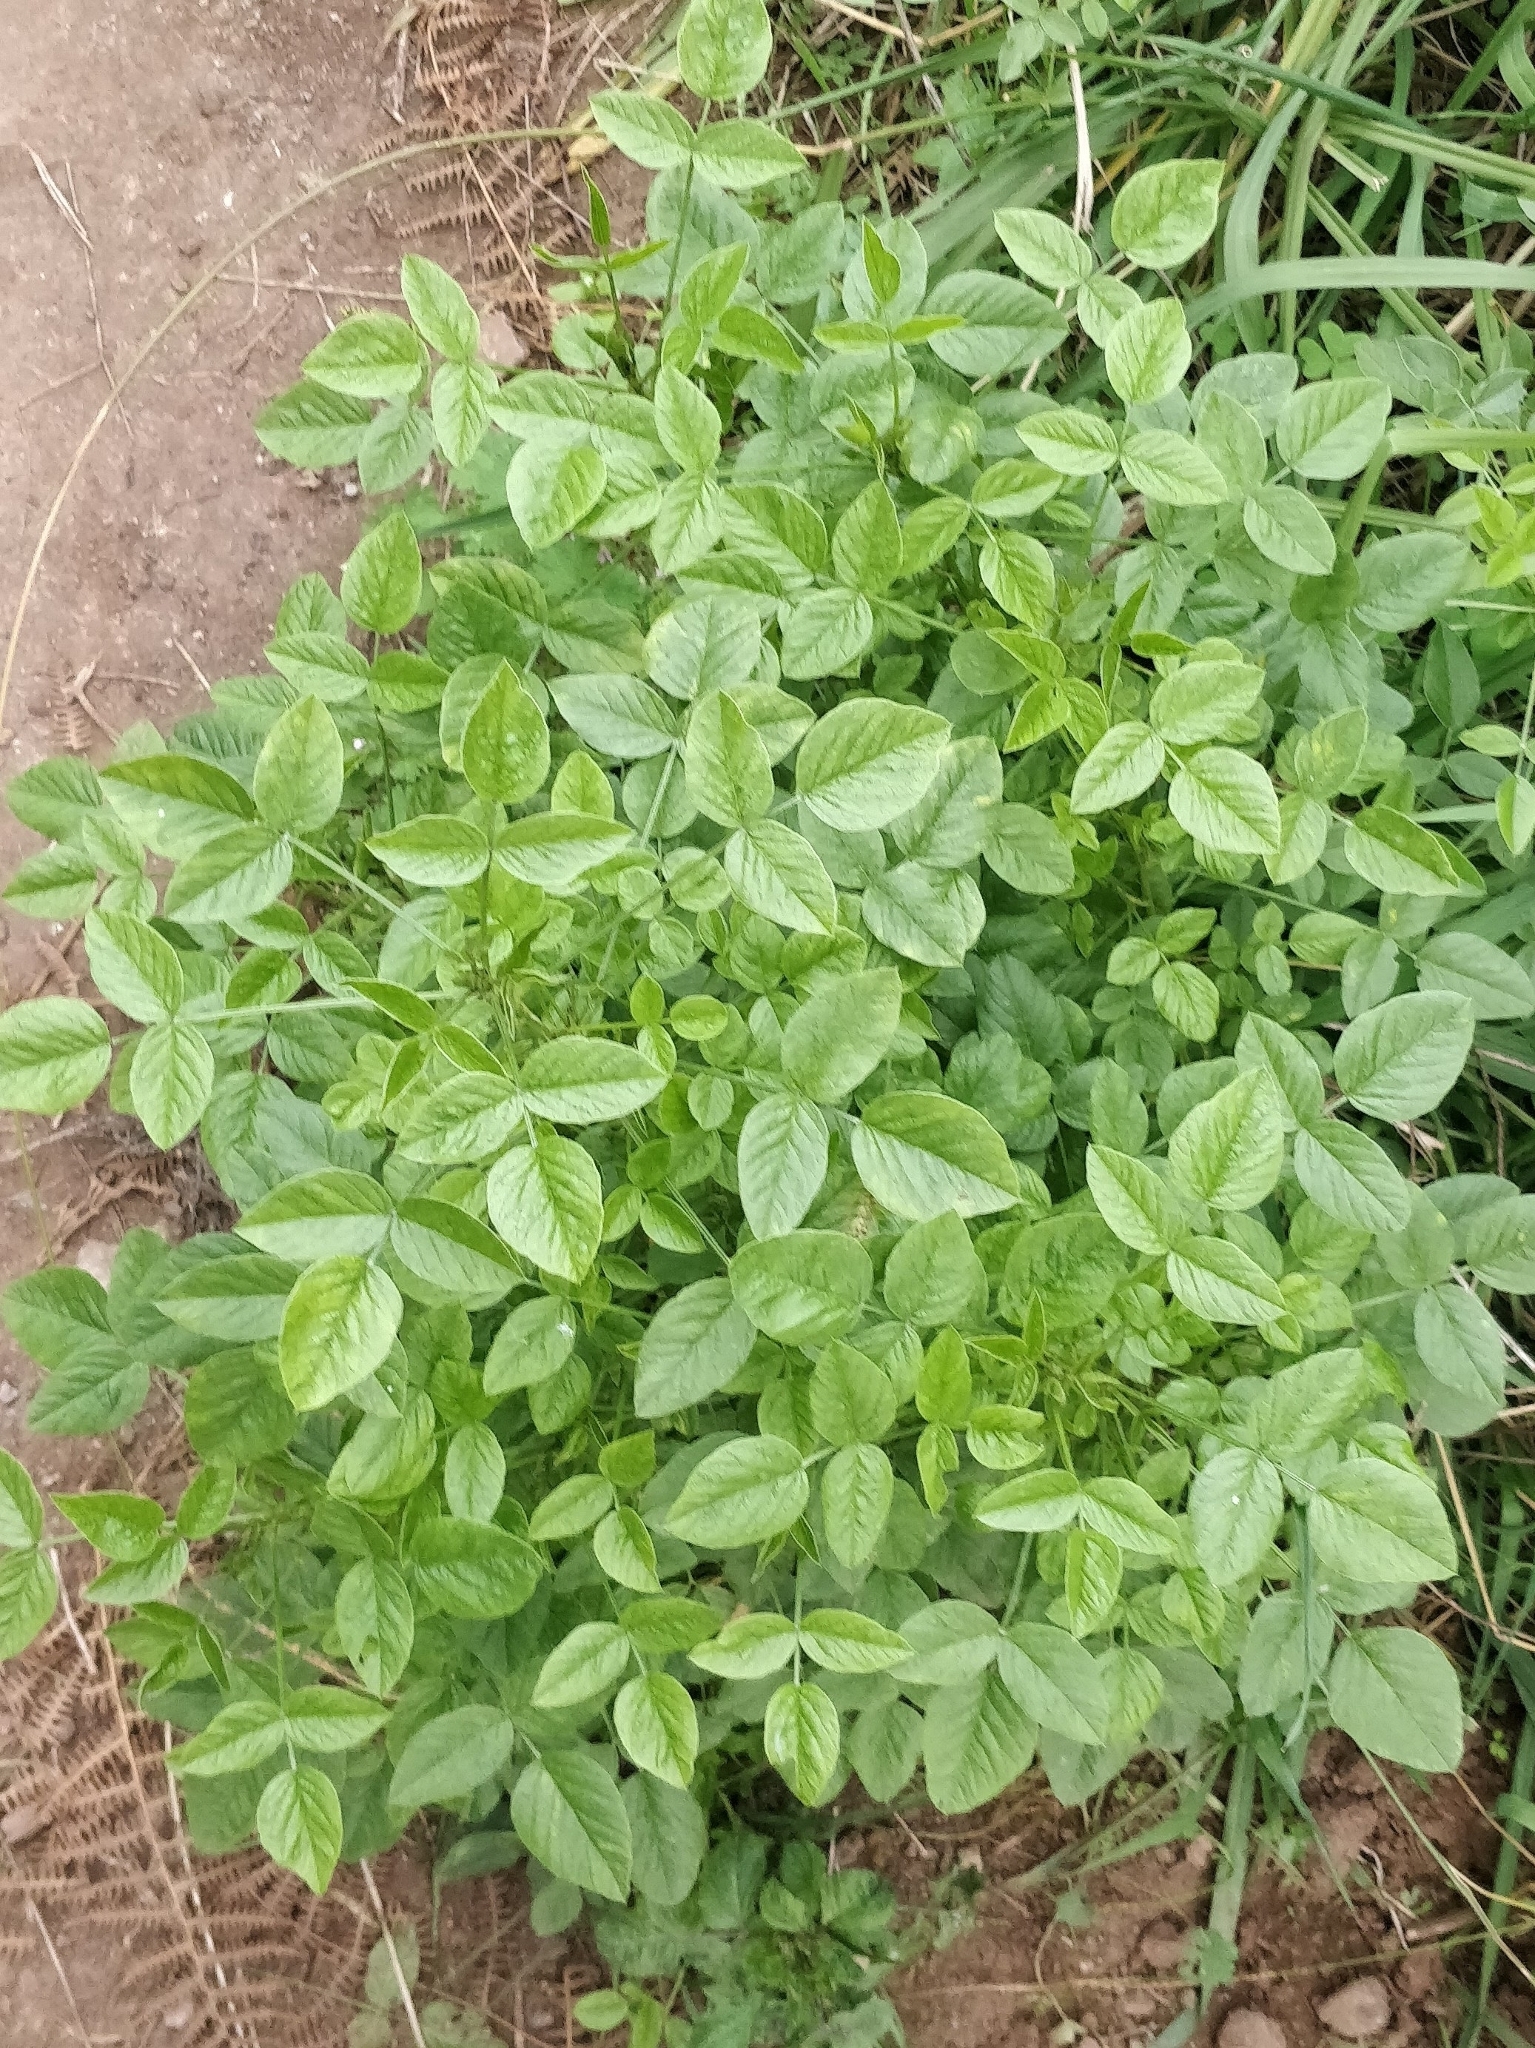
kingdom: Plantae
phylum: Tracheophyta
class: Magnoliopsida
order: Fabales
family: Fabaceae
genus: Bituminaria
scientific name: Bituminaria bituminosa
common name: Arabian pea
